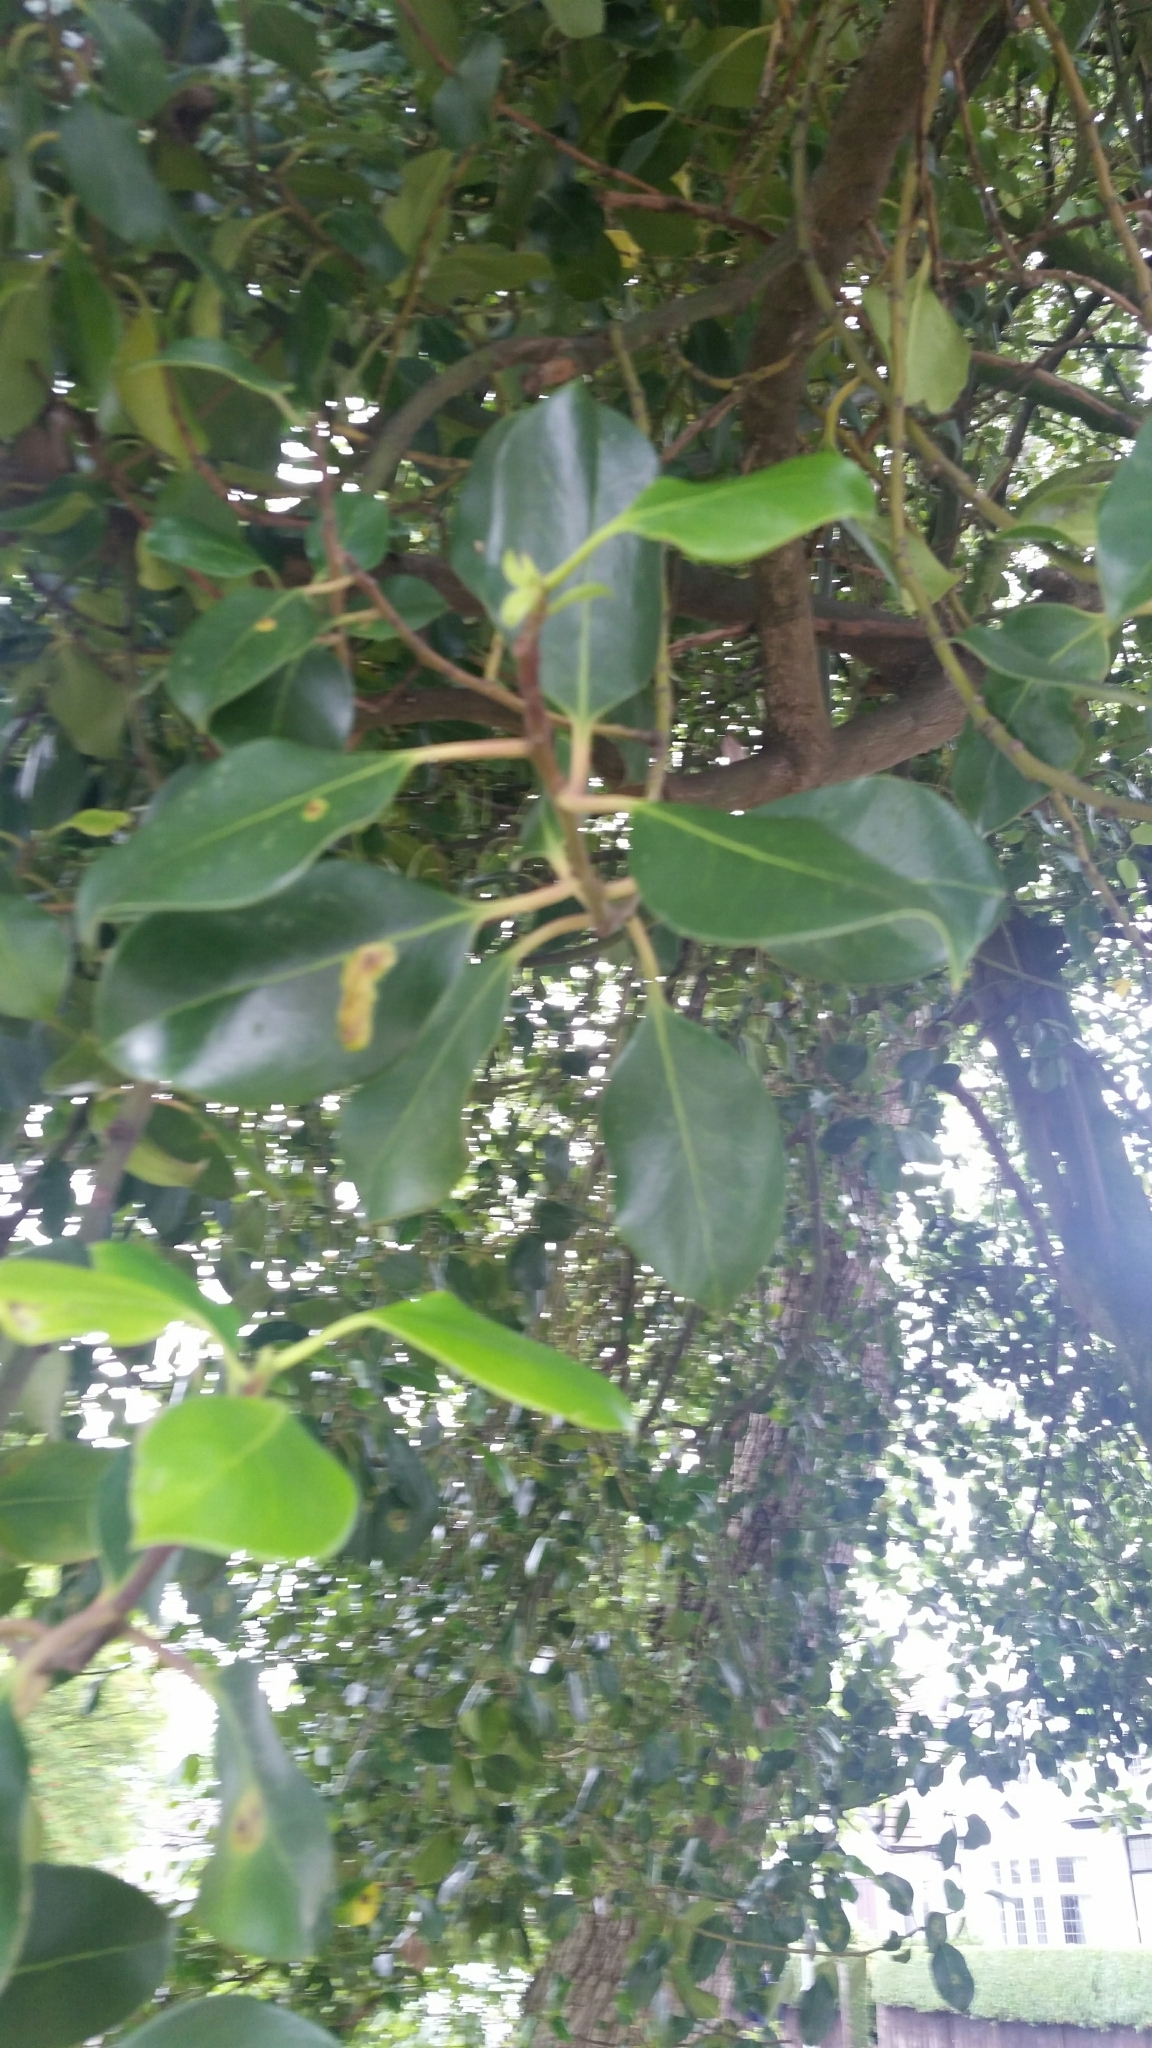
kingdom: Plantae
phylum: Tracheophyta
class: Magnoliopsida
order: Aquifoliales
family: Aquifoliaceae
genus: Ilex
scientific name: Ilex altaclerensis
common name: Highclere holly
